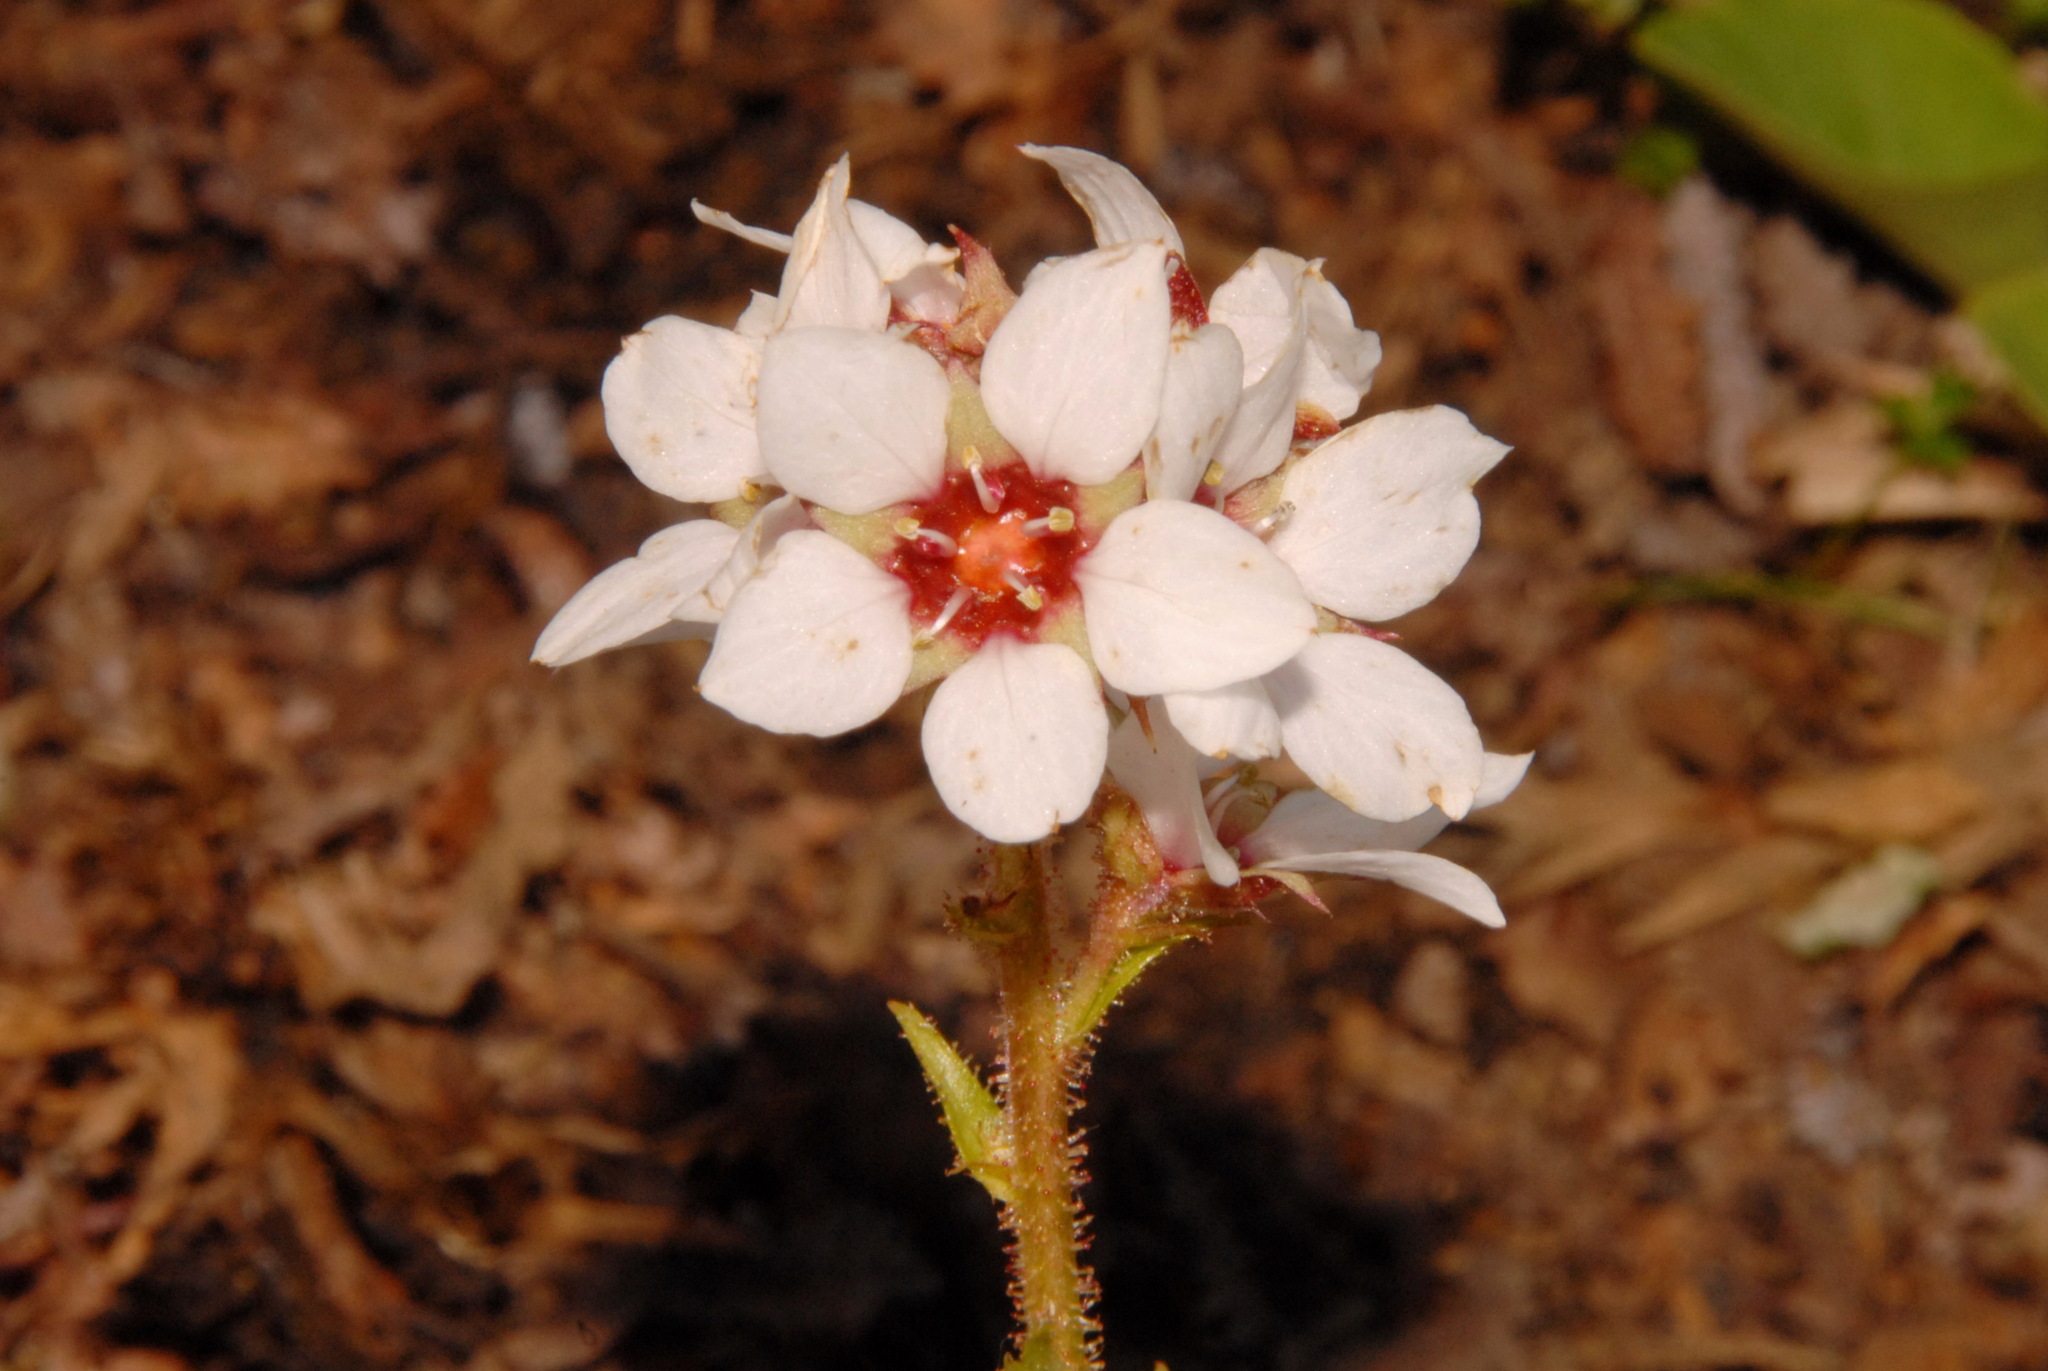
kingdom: Plantae
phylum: Tracheophyta
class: Magnoliopsida
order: Saxifragales
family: Saxifragaceae
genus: Boykinia
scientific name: Boykinia richardsonii
